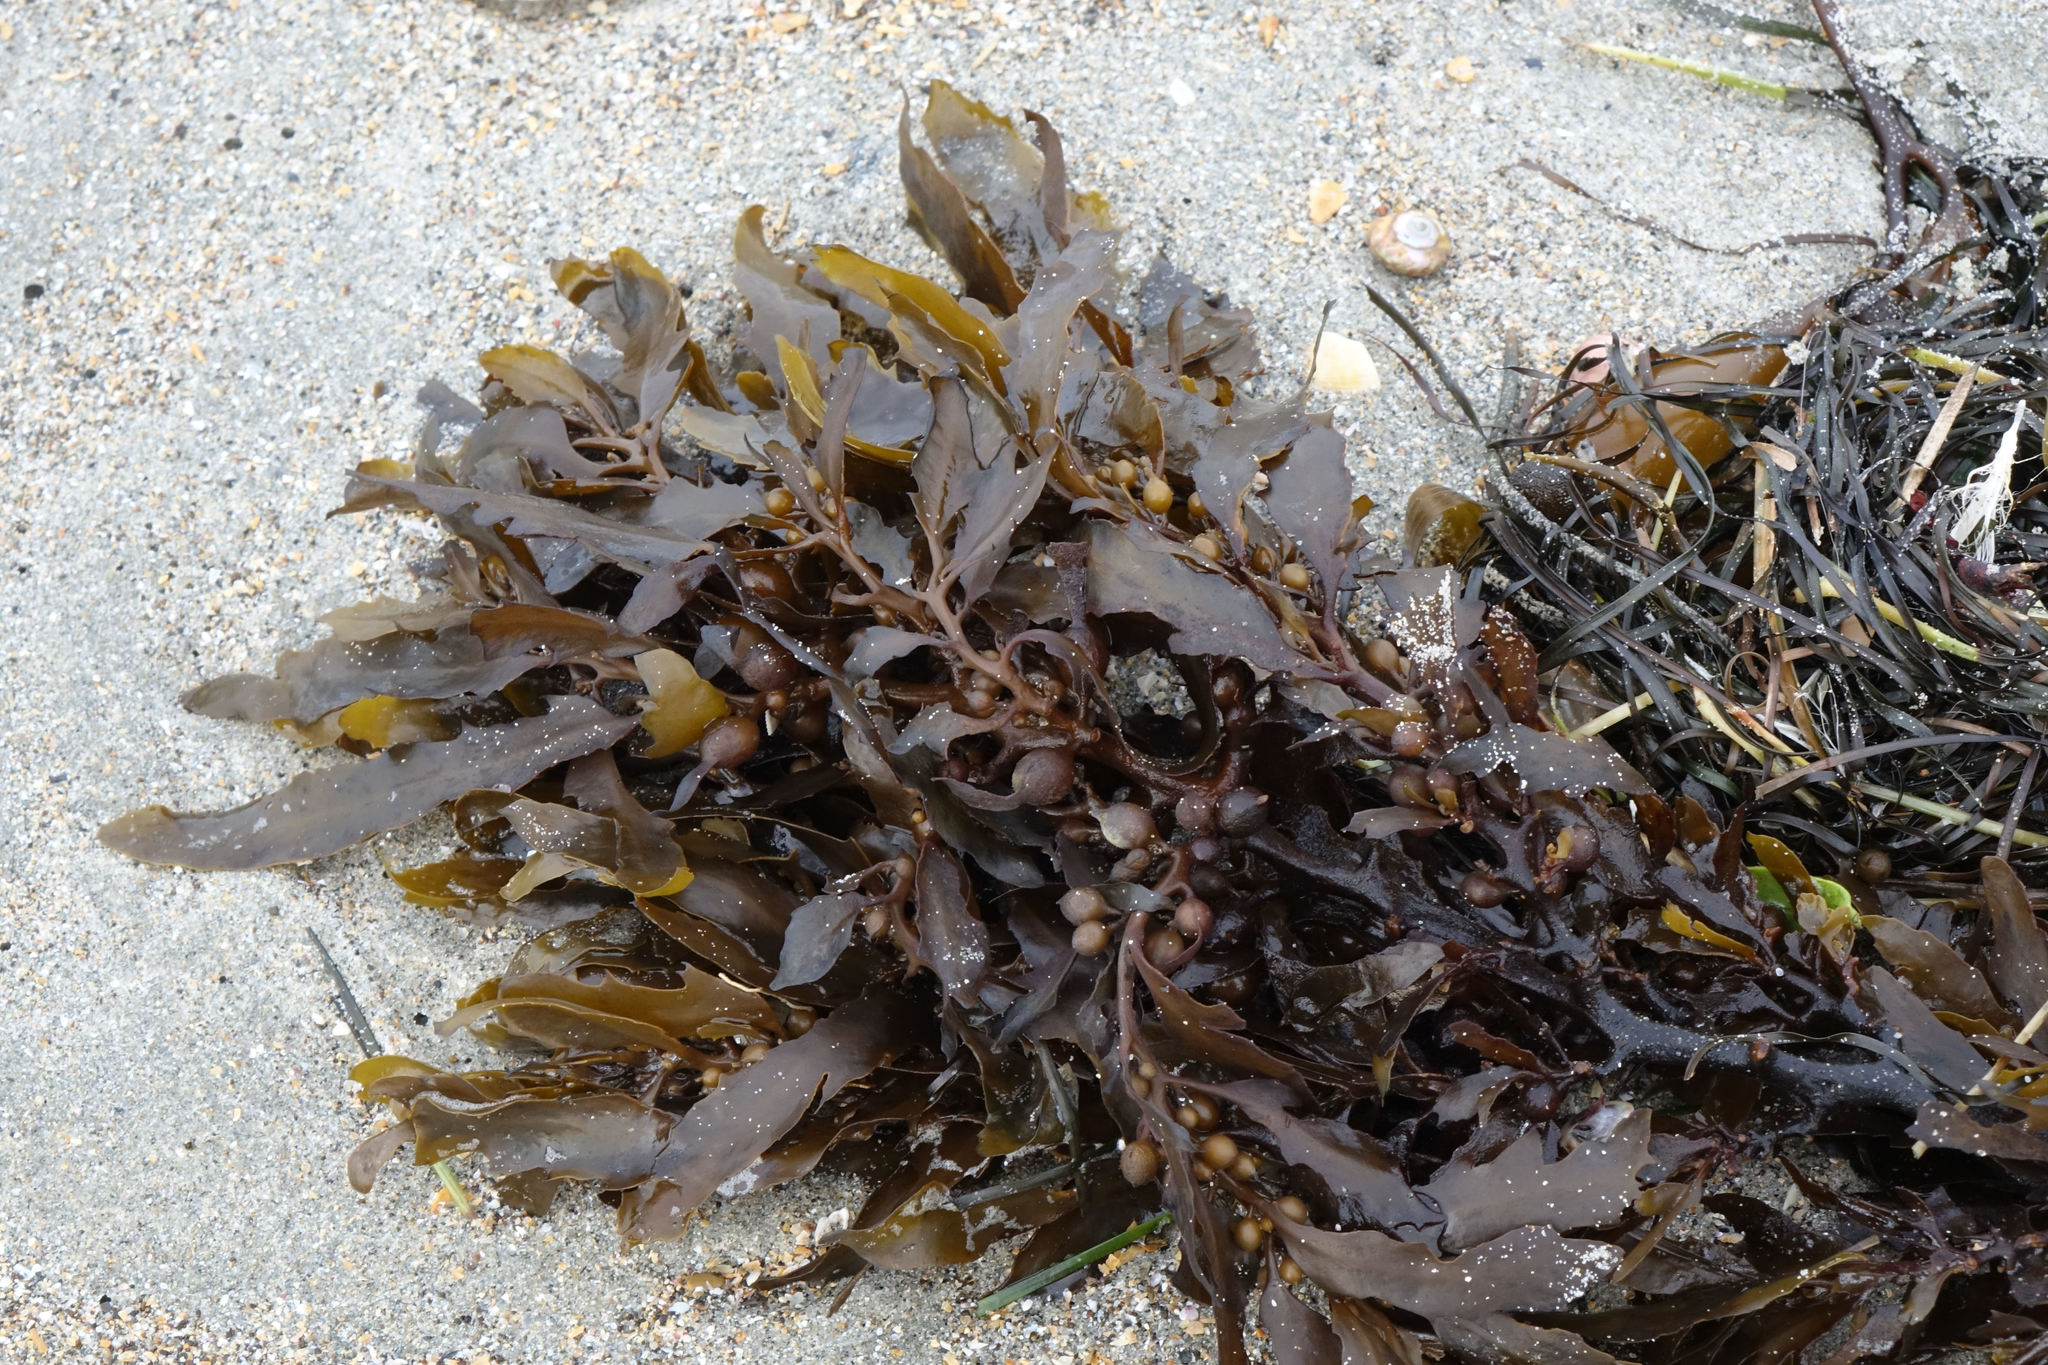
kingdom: Chromista
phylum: Ochrophyta
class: Phaeophyceae
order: Fucales
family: Sargassaceae
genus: Sargassum
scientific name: Sargassum sinclairii
